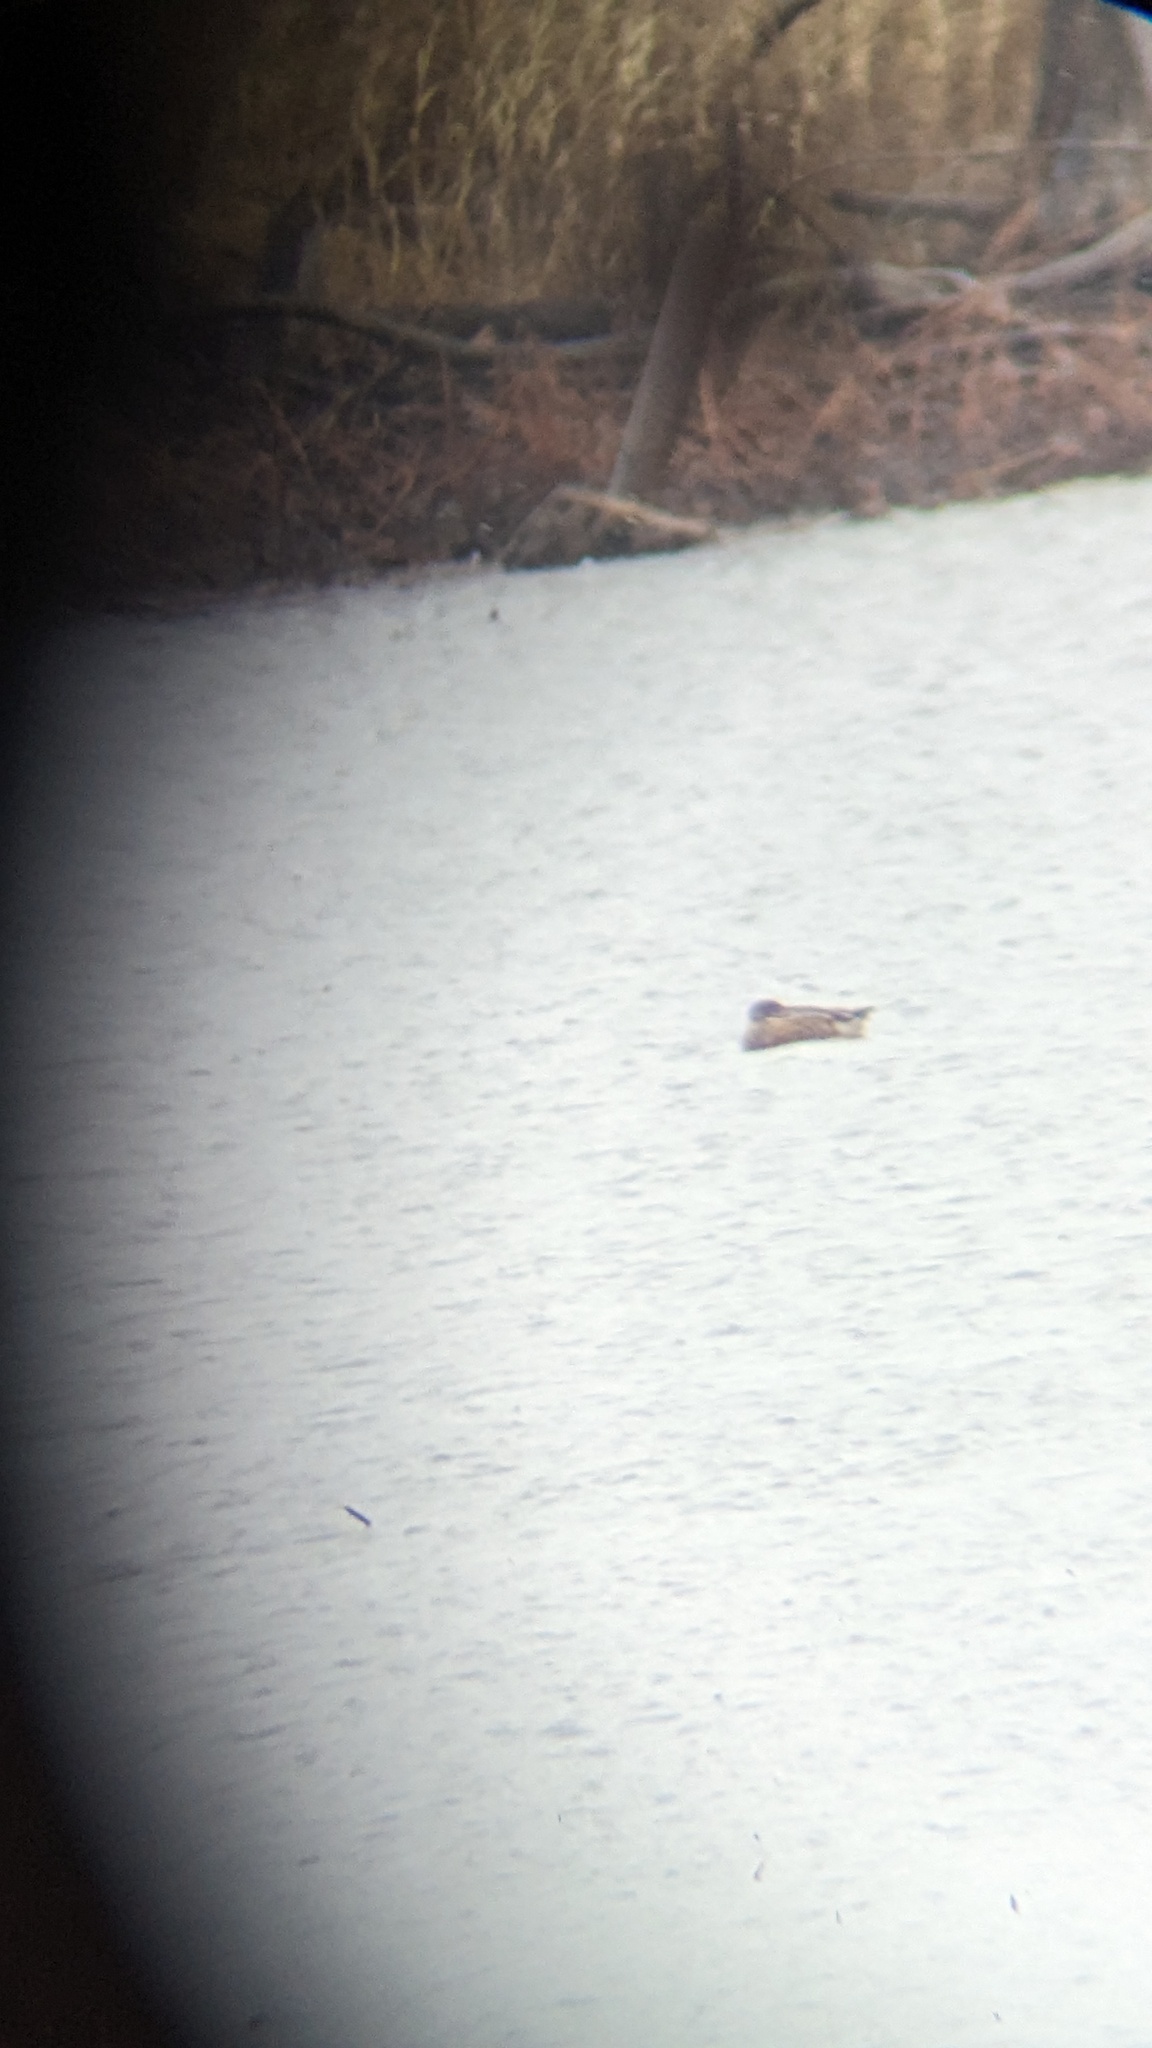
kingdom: Animalia
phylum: Chordata
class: Aves
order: Anseriformes
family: Anatidae
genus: Spatula
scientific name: Spatula clypeata
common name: Northern shoveler
